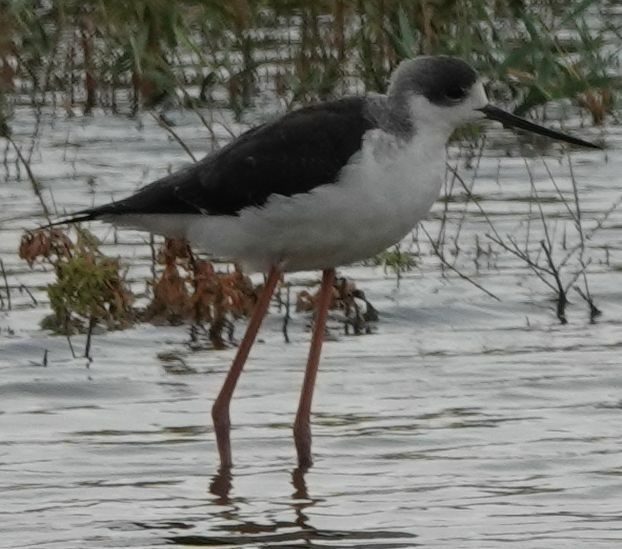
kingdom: Animalia
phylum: Chordata
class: Aves
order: Charadriiformes
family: Recurvirostridae
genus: Himantopus
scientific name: Himantopus himantopus
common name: Black-winged stilt
